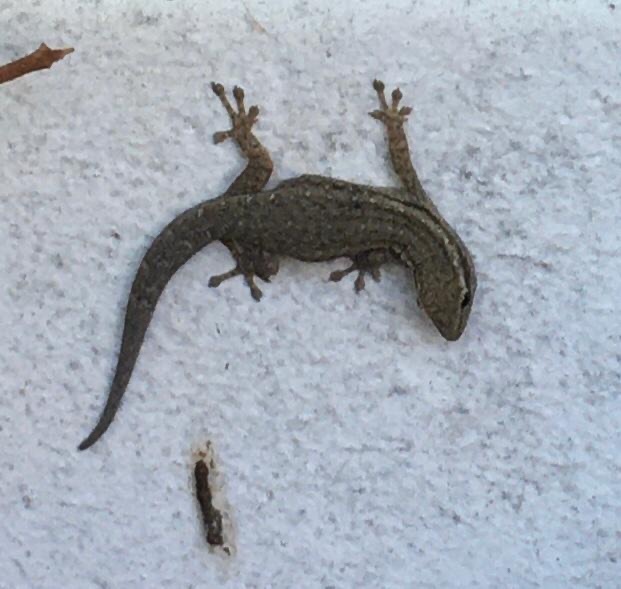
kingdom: Animalia
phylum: Chordata
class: Squamata
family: Gekkonidae
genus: Lygodactylus
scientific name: Lygodactylus capensis
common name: Cape dwarf gecko
